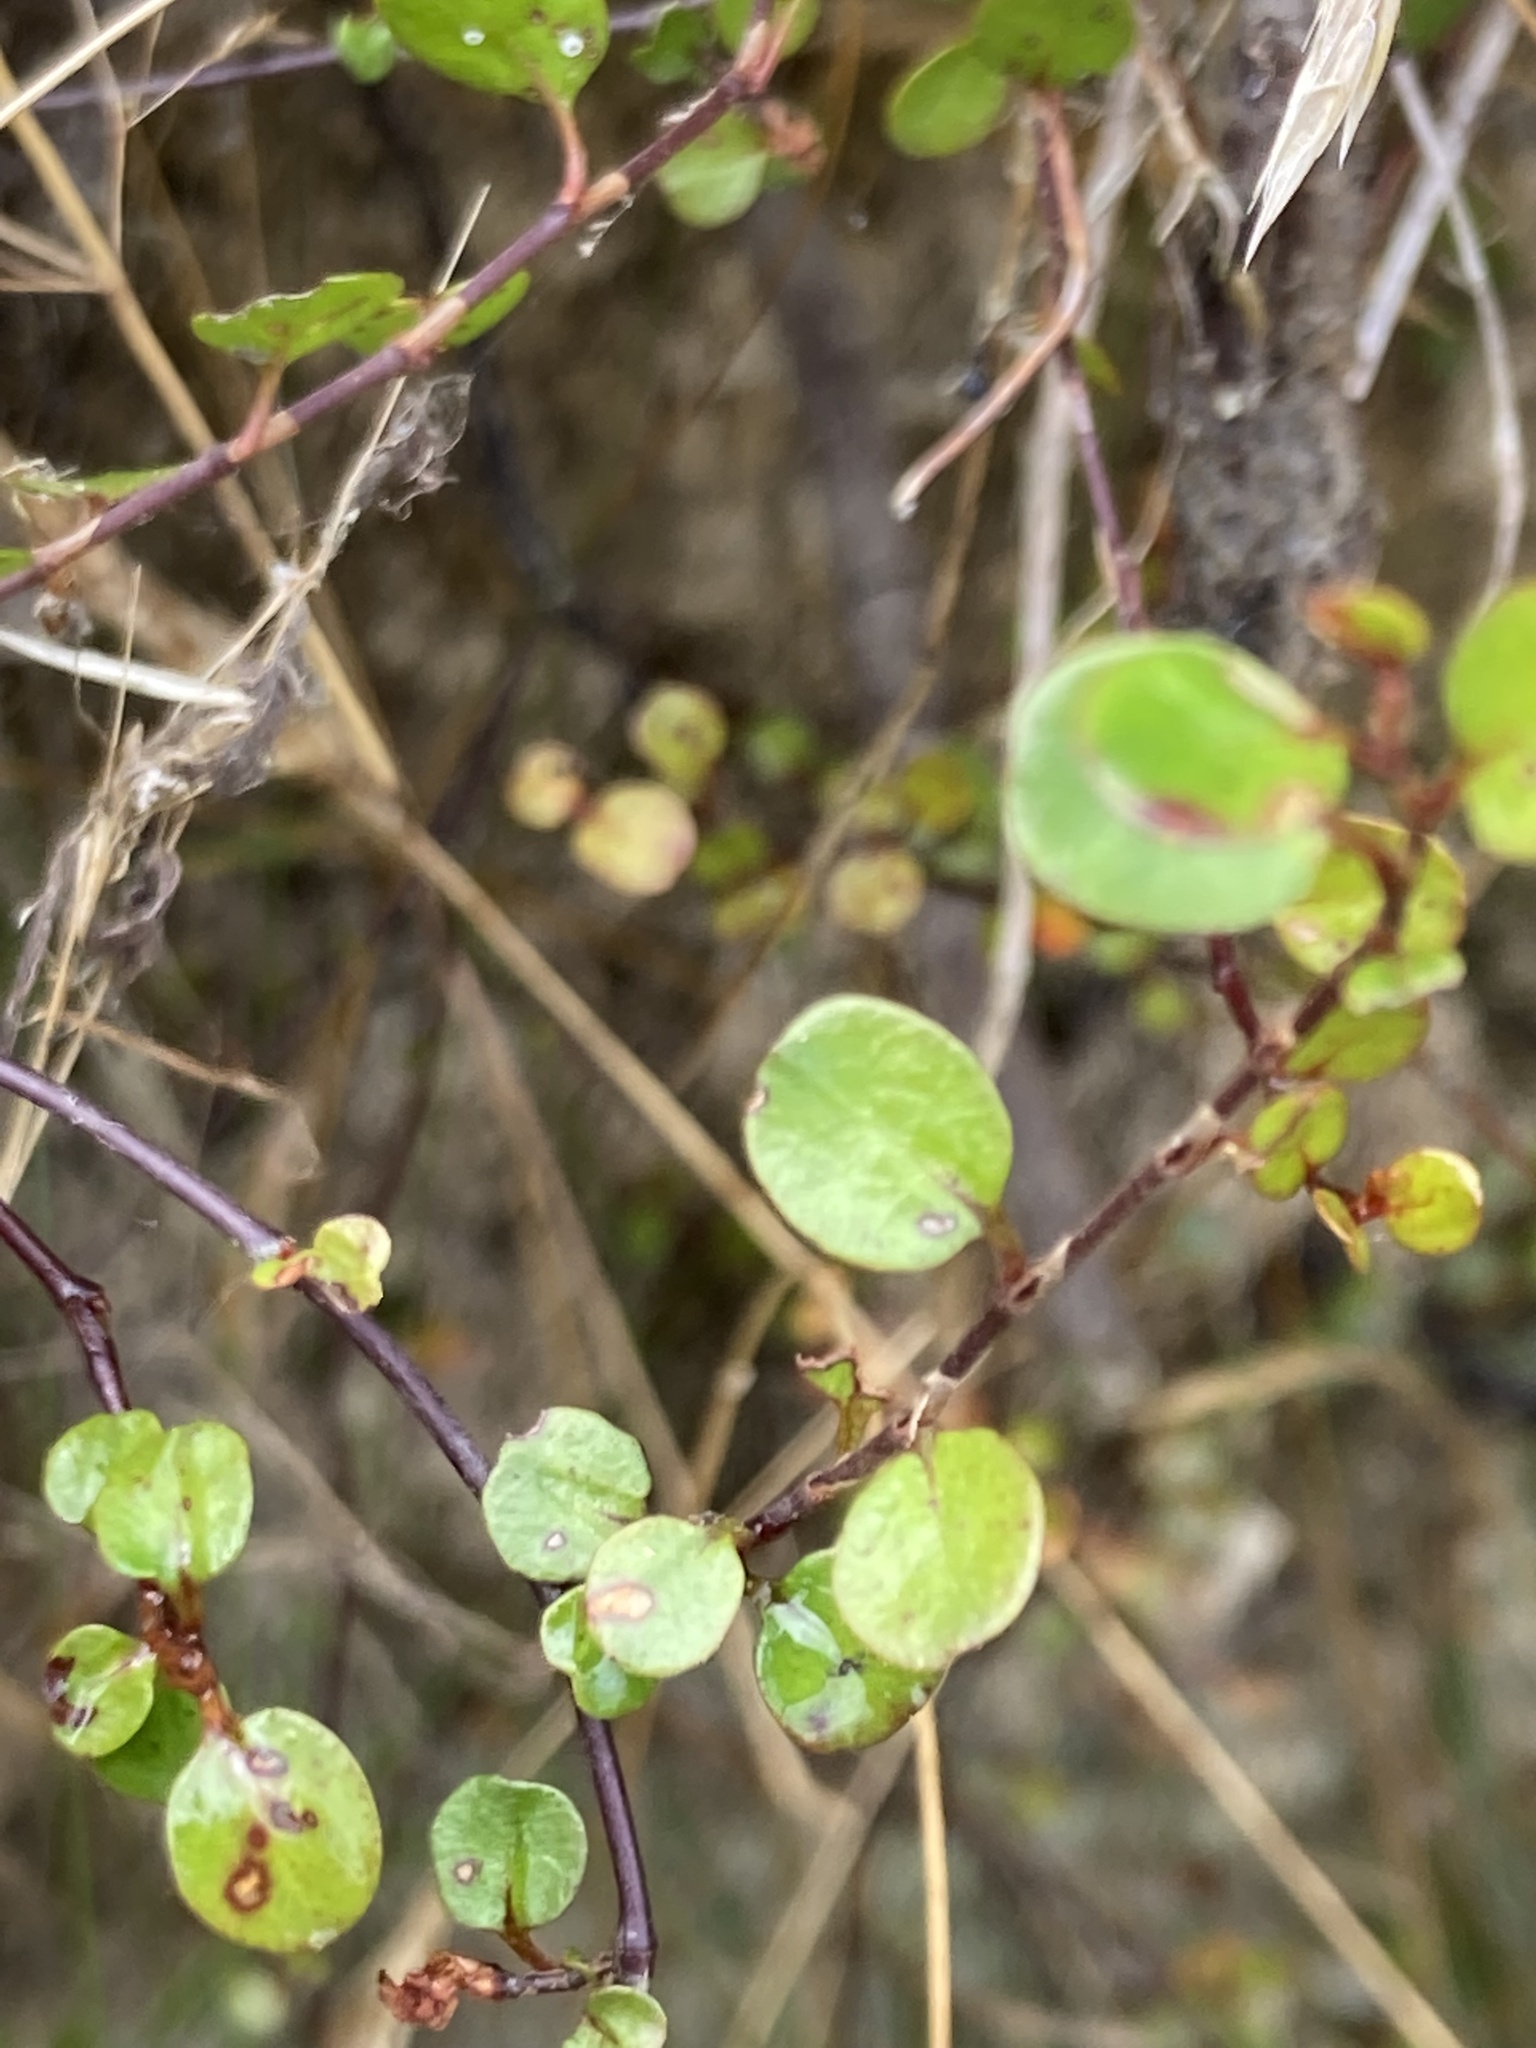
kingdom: Plantae
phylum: Tracheophyta
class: Magnoliopsida
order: Caryophyllales
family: Polygonaceae
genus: Muehlenbeckia
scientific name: Muehlenbeckia complexa
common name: Wireplant
